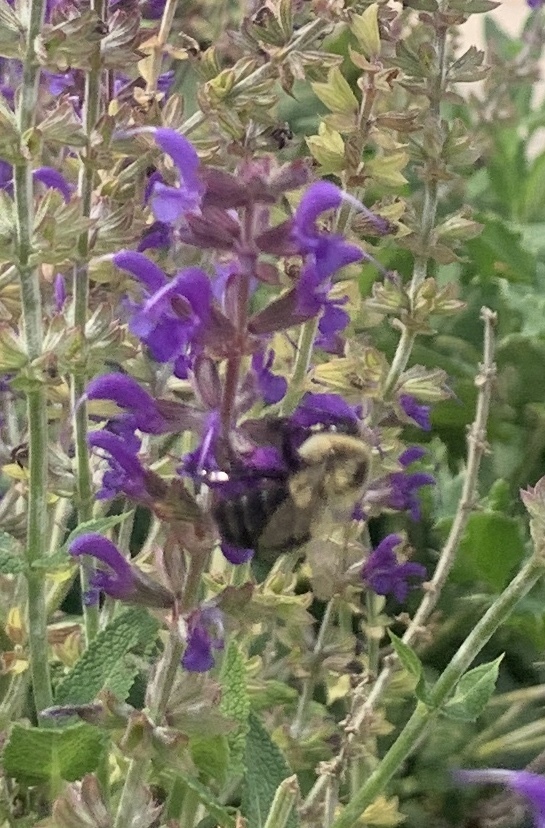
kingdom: Animalia
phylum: Arthropoda
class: Insecta
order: Hymenoptera
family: Apidae
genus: Bombus
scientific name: Bombus impatiens
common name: Common eastern bumble bee
